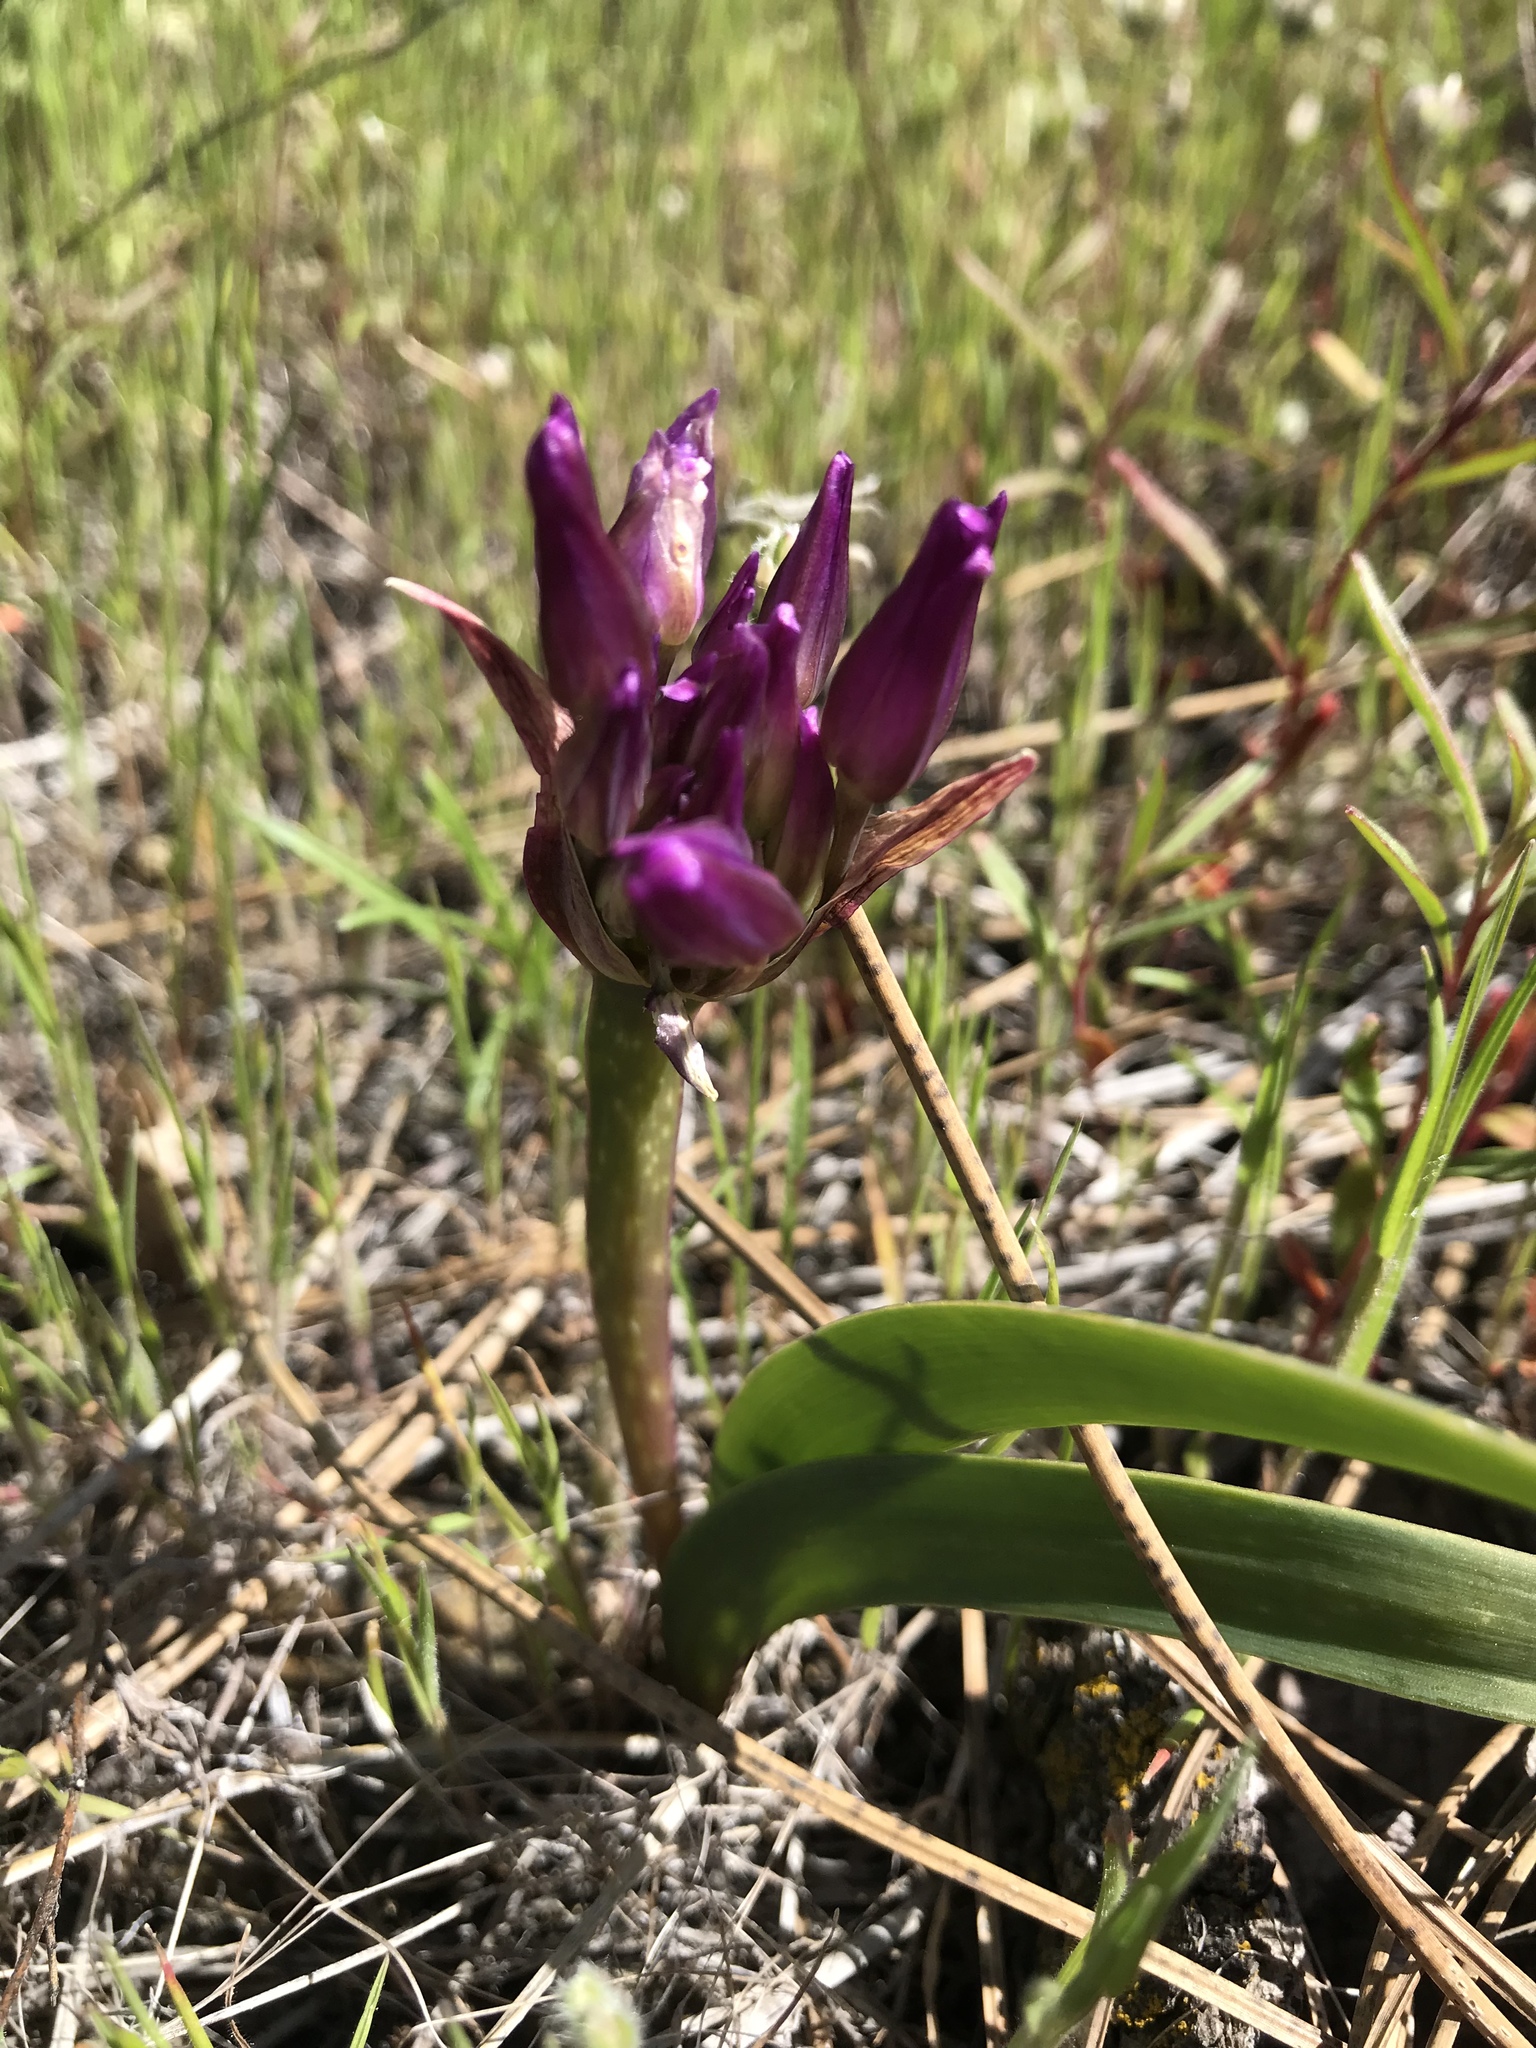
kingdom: Plantae
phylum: Tracheophyta
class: Liliopsida
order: Asparagales
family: Amaryllidaceae
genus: Allium
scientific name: Allium falcifolium
